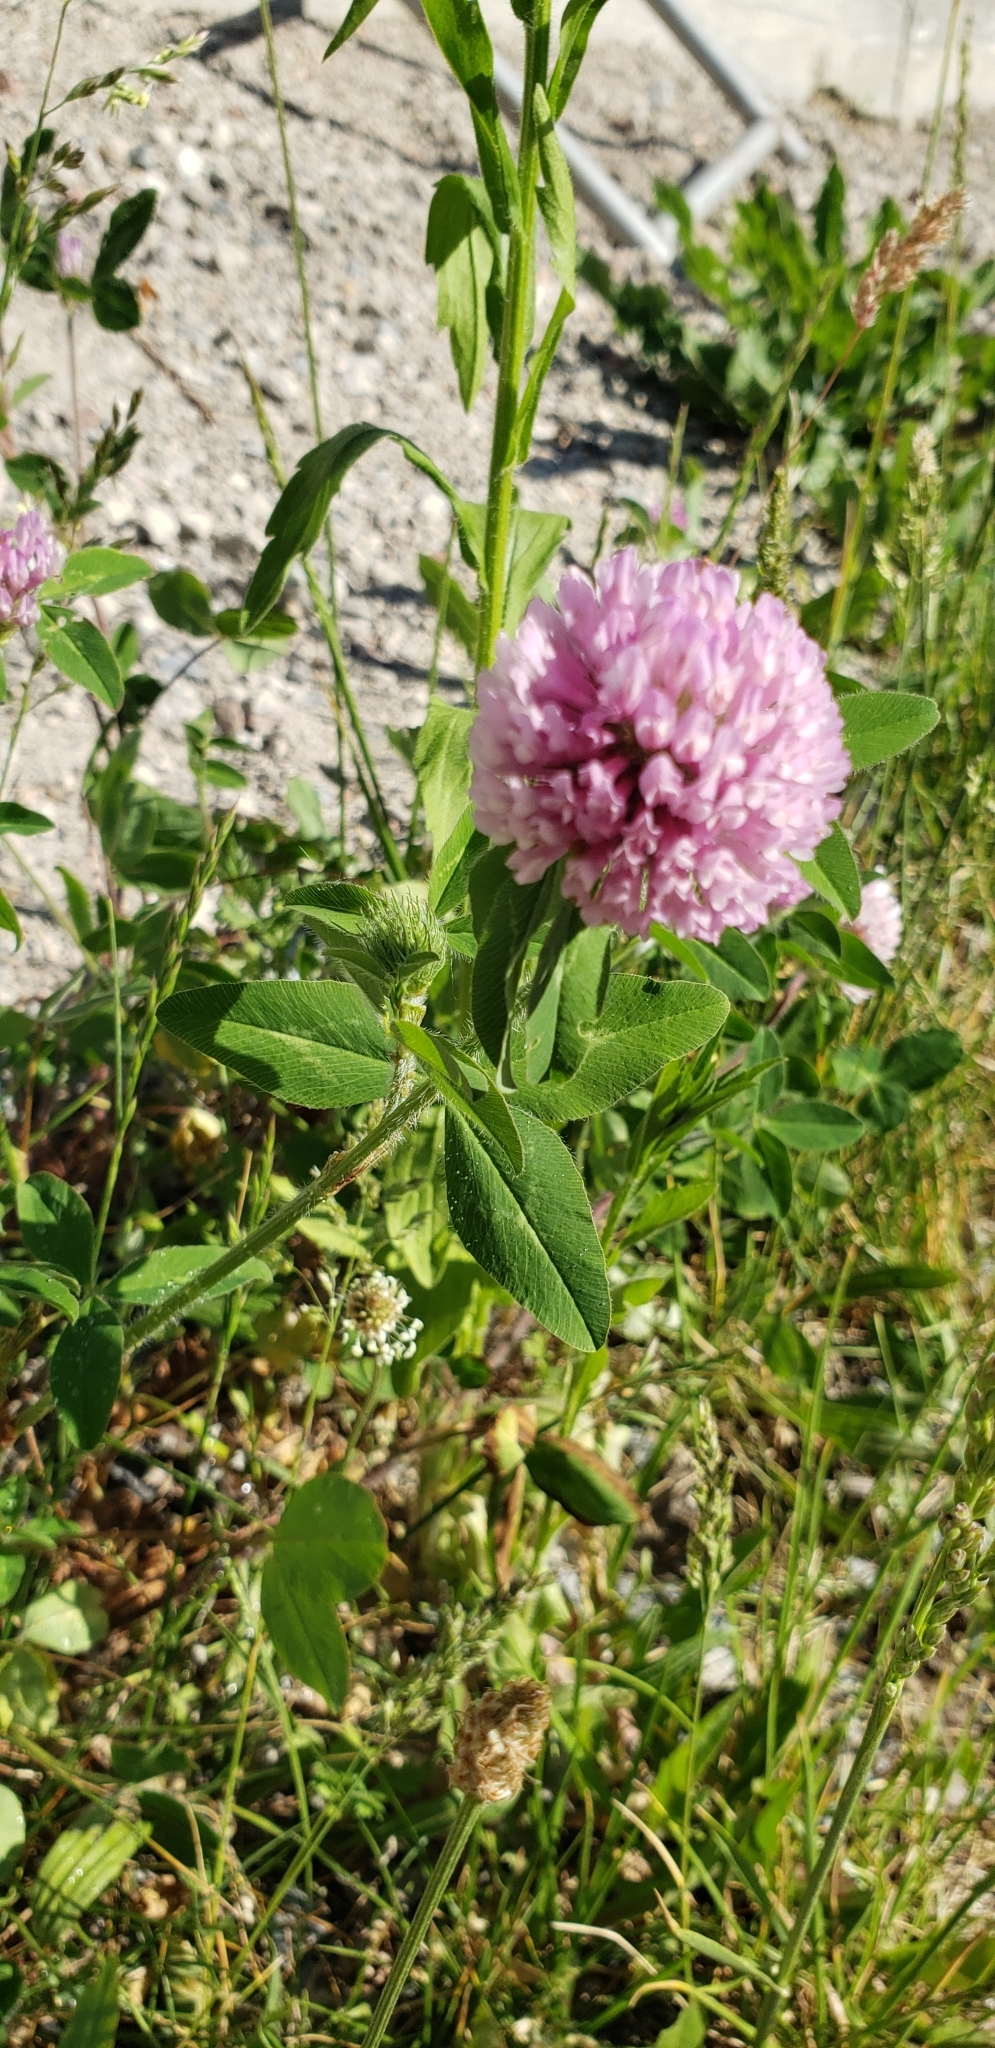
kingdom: Plantae
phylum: Tracheophyta
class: Magnoliopsida
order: Fabales
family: Fabaceae
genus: Trifolium
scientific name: Trifolium pratense
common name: Red clover
